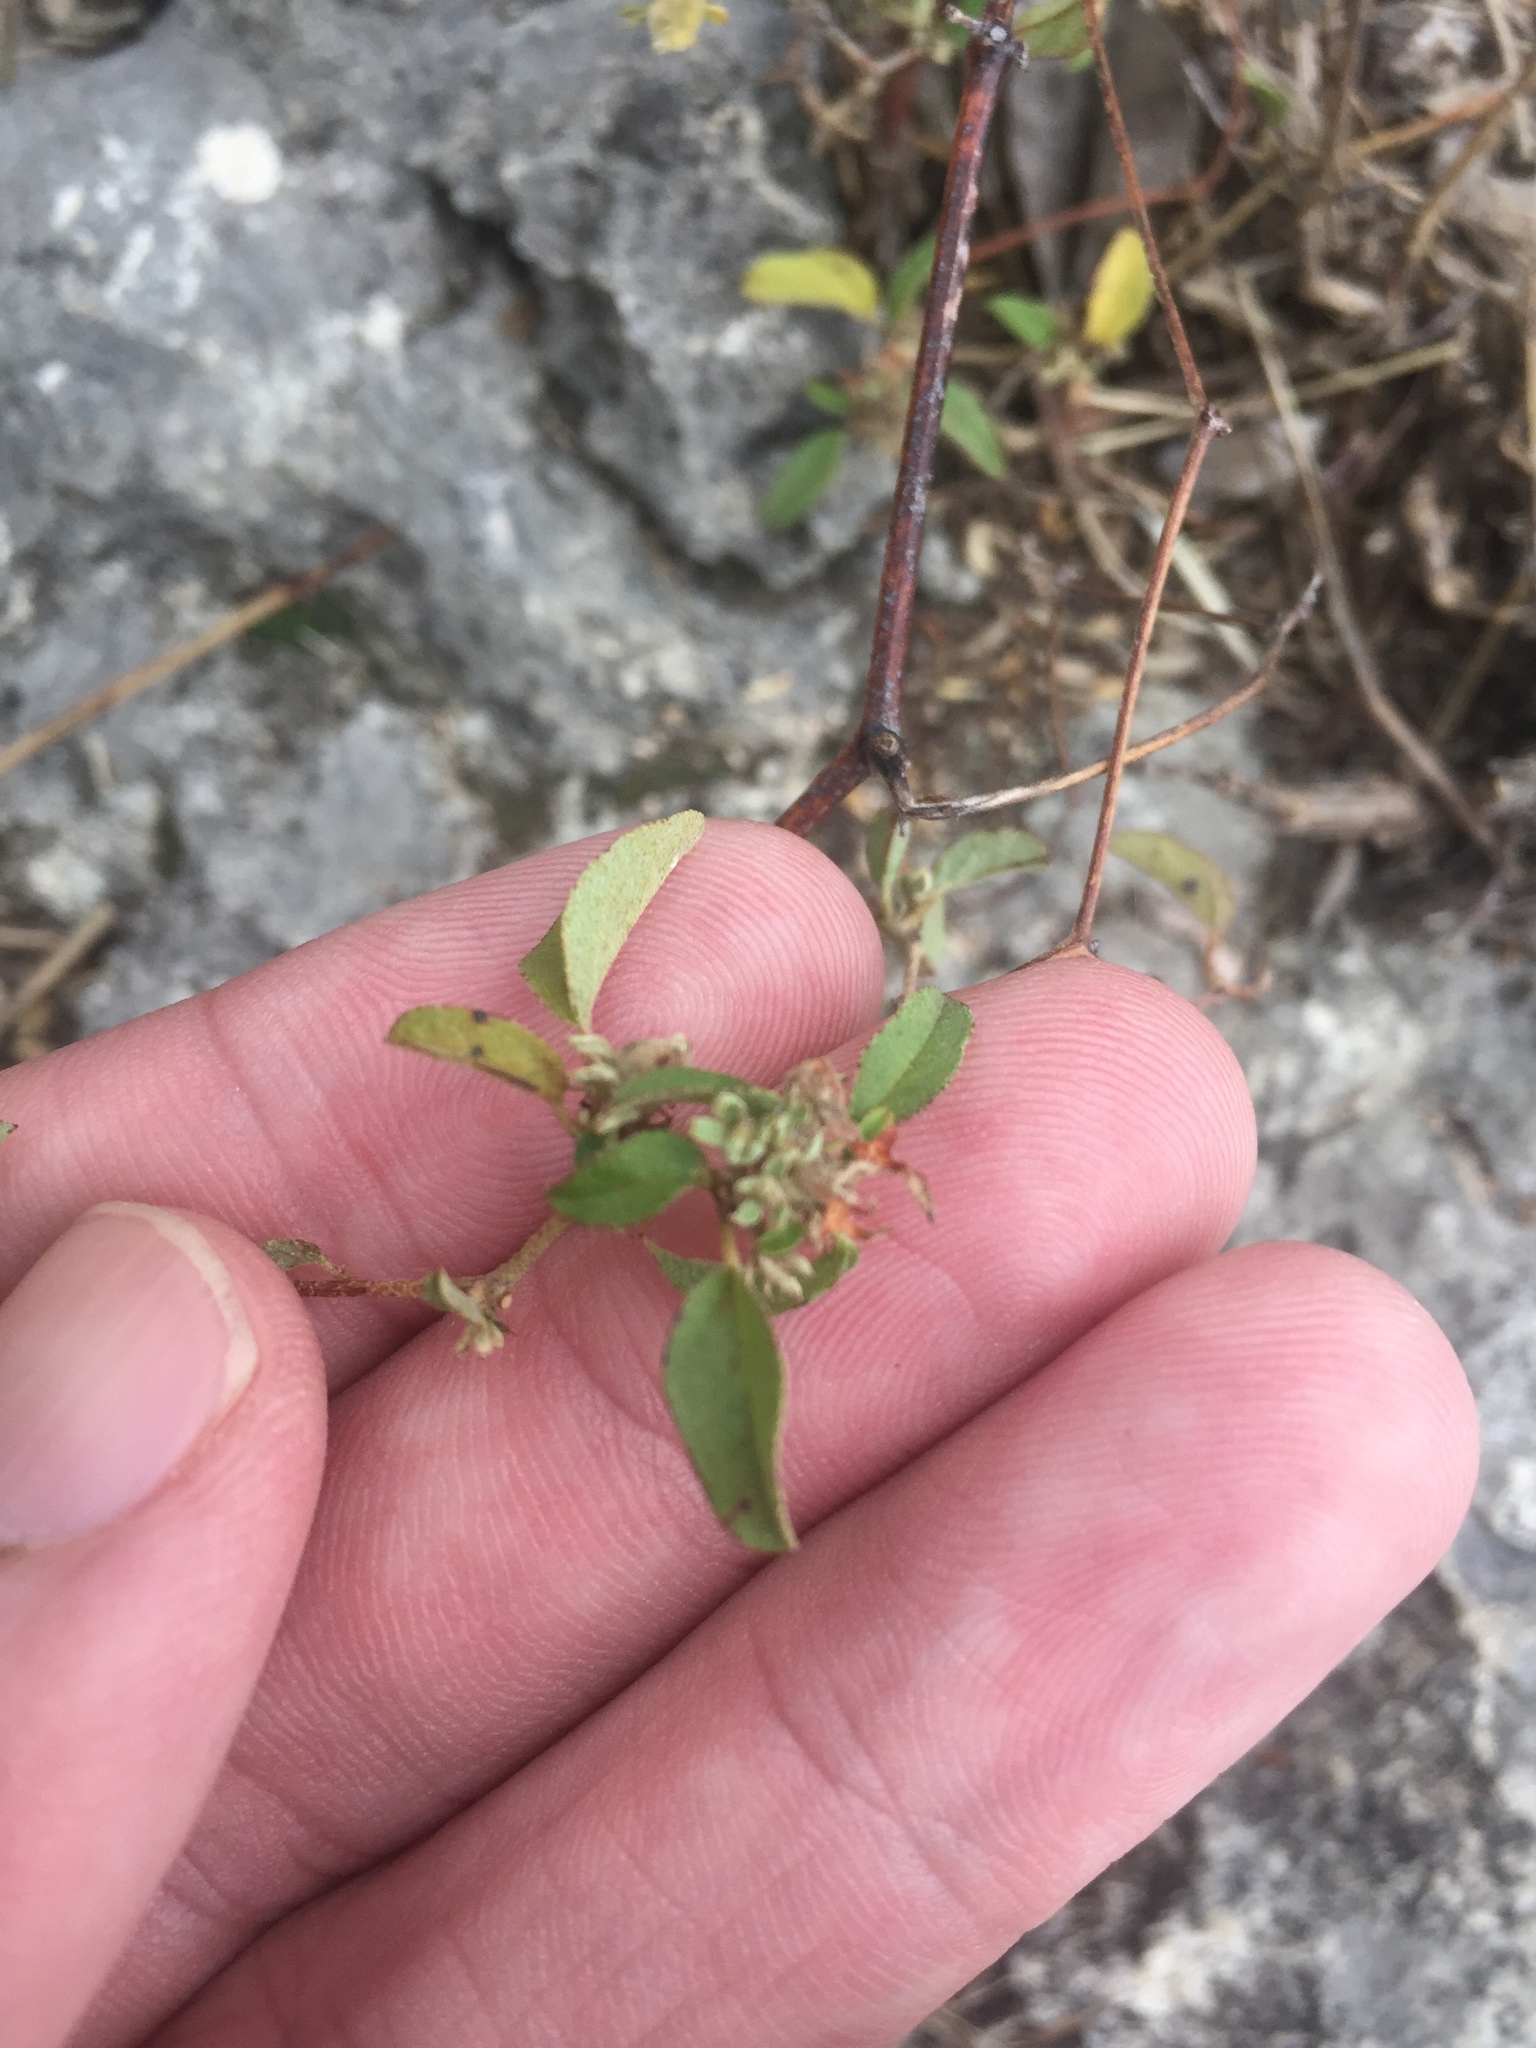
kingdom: Plantae
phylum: Tracheophyta
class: Magnoliopsida
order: Malpighiales
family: Euphorbiaceae
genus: Croton
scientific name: Croton monanthogynus
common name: One-seed croton
